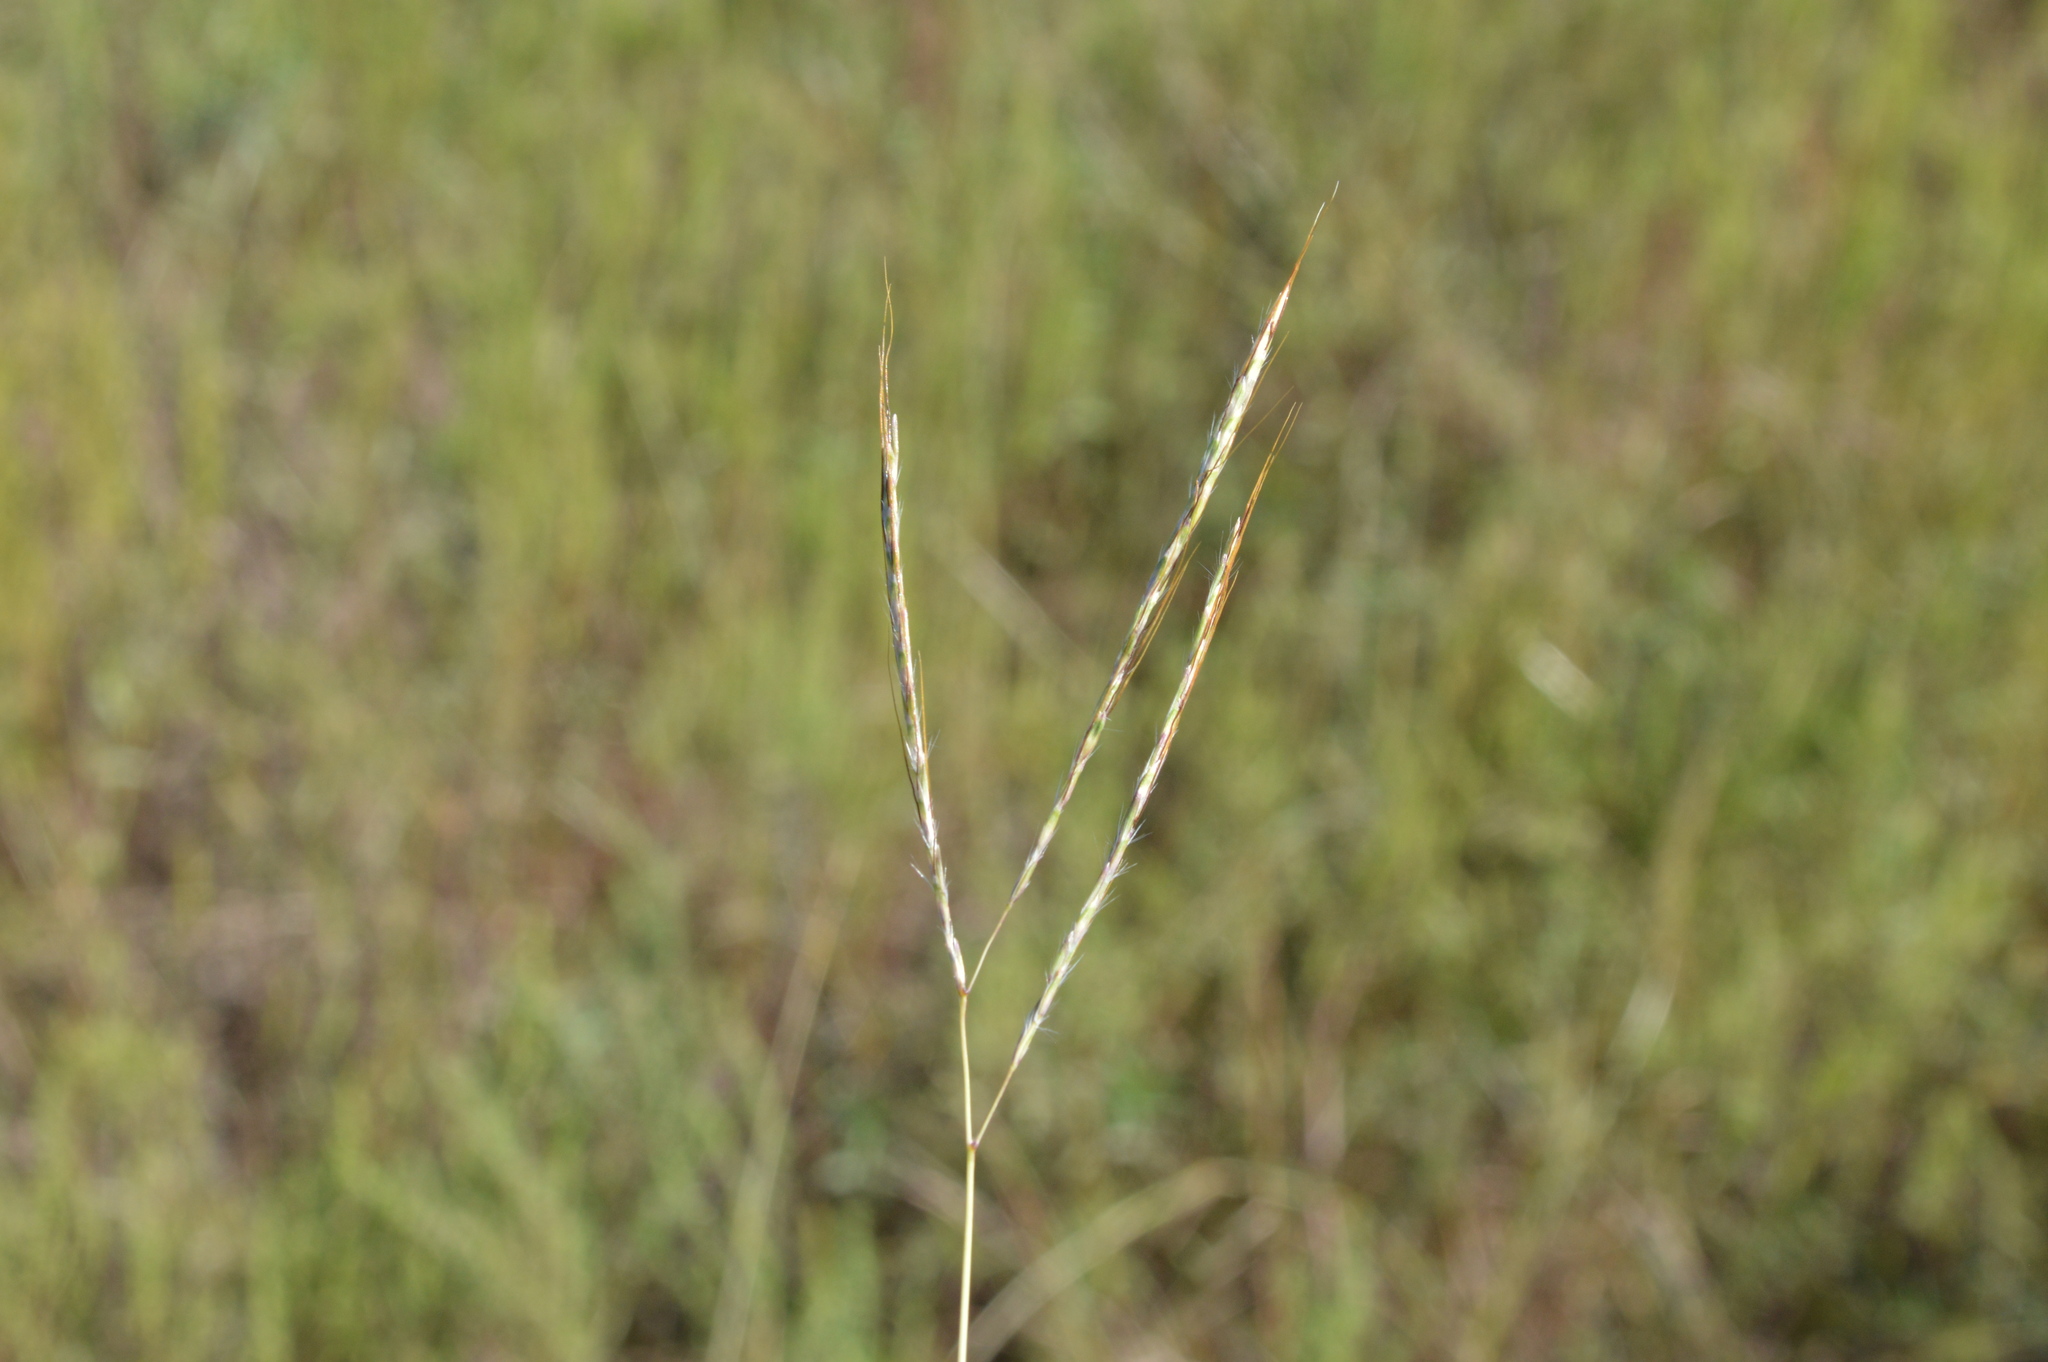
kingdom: Plantae
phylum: Tracheophyta
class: Liliopsida
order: Poales
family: Poaceae
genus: Bothriochloa
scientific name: Bothriochloa ischaemum
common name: Yellow bluestem
